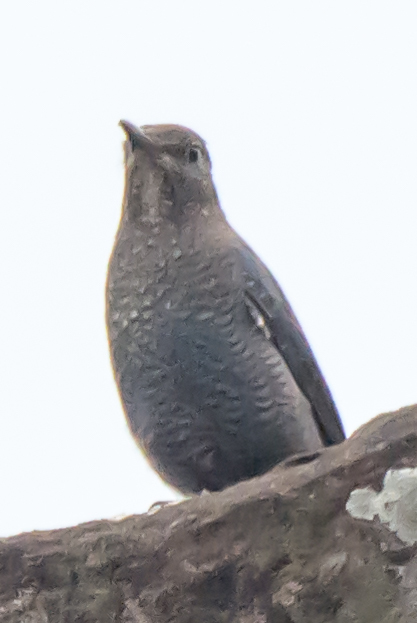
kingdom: Animalia
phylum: Chordata
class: Aves
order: Passeriformes
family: Muscicapidae
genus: Monticola
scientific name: Monticola solitarius
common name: Blue rock thrush
